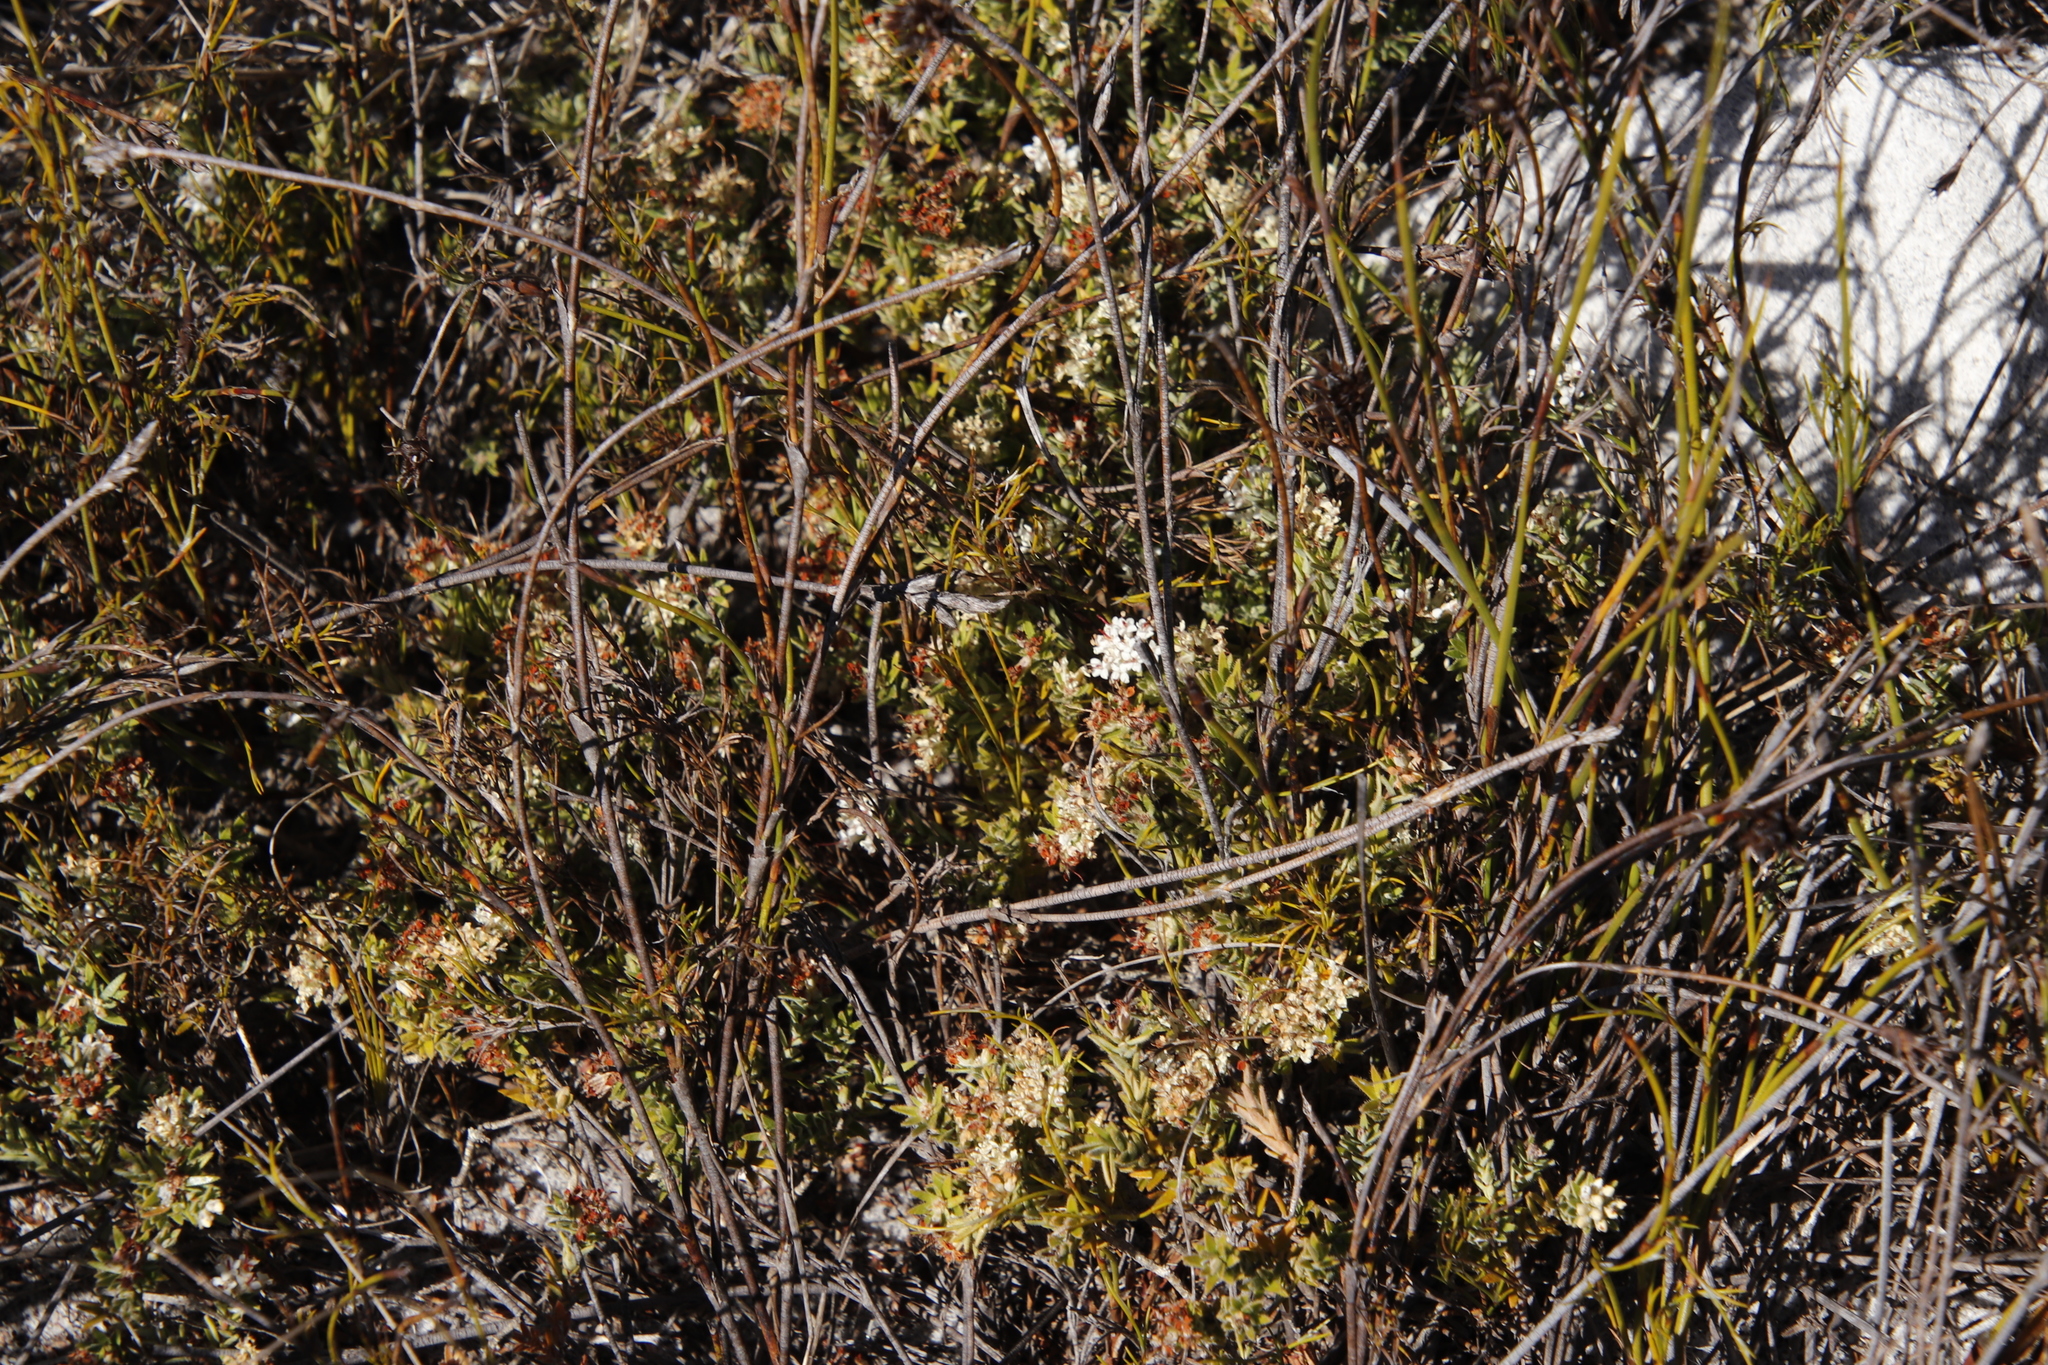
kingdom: Plantae
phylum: Tracheophyta
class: Magnoliopsida
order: Sapindales
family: Rutaceae
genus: Macrostylis
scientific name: Macrostylis villosa
